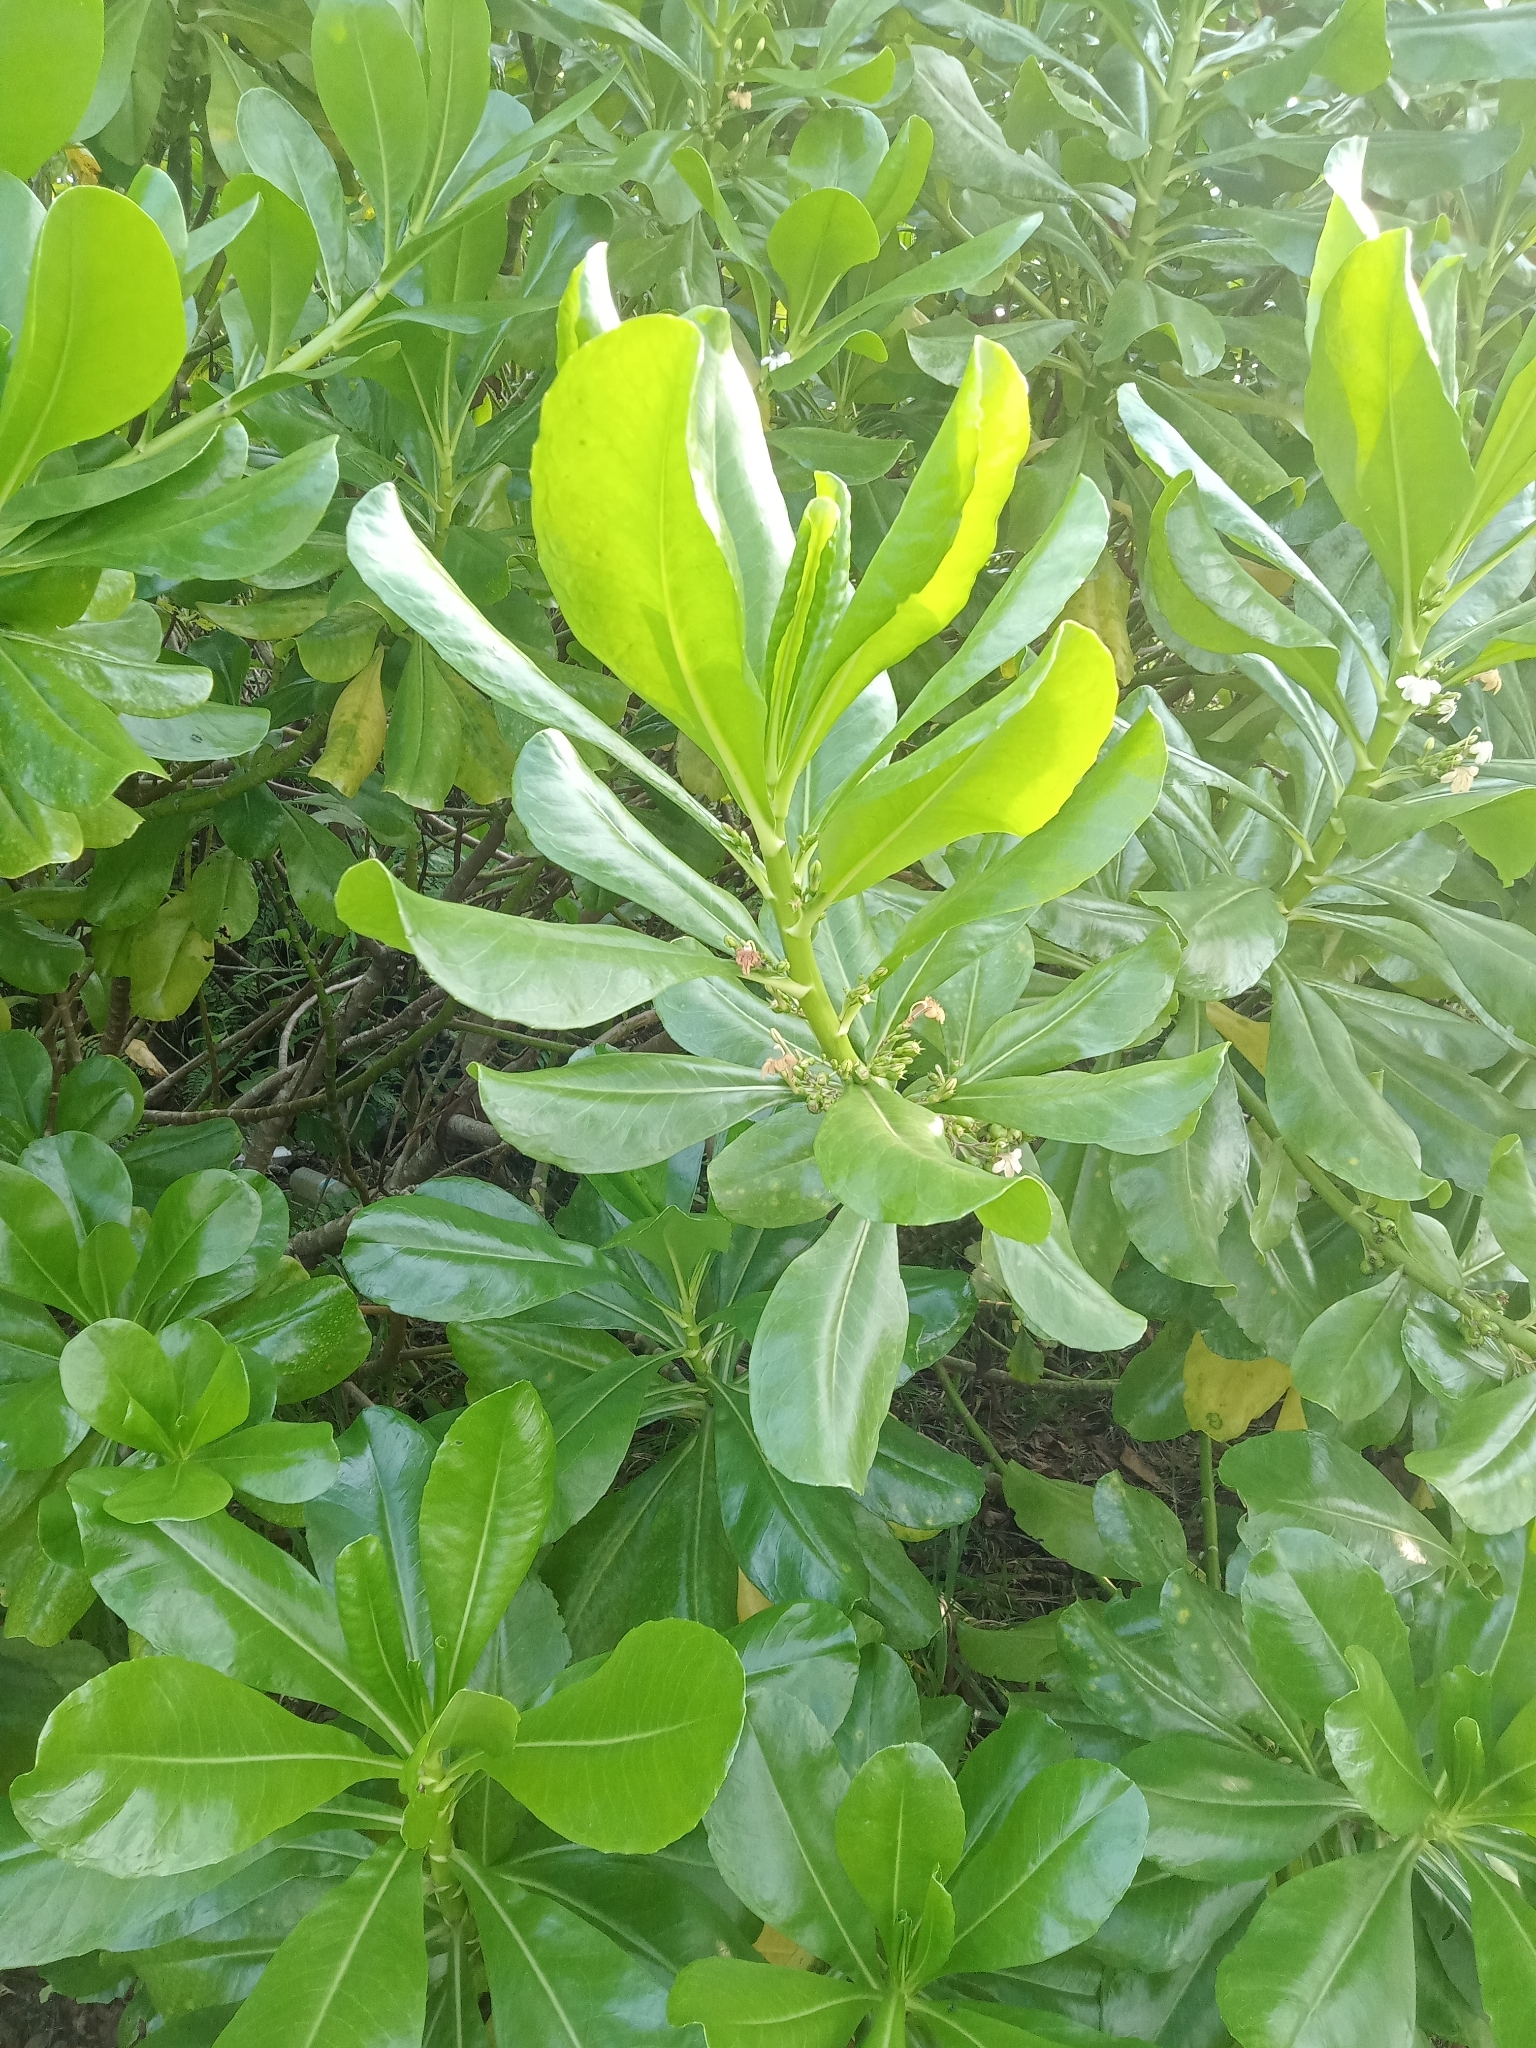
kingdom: Plantae
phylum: Tracheophyta
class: Magnoliopsida
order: Asterales
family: Goodeniaceae
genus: Scaevola
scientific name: Scaevola taccada
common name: Sea lettucetree
